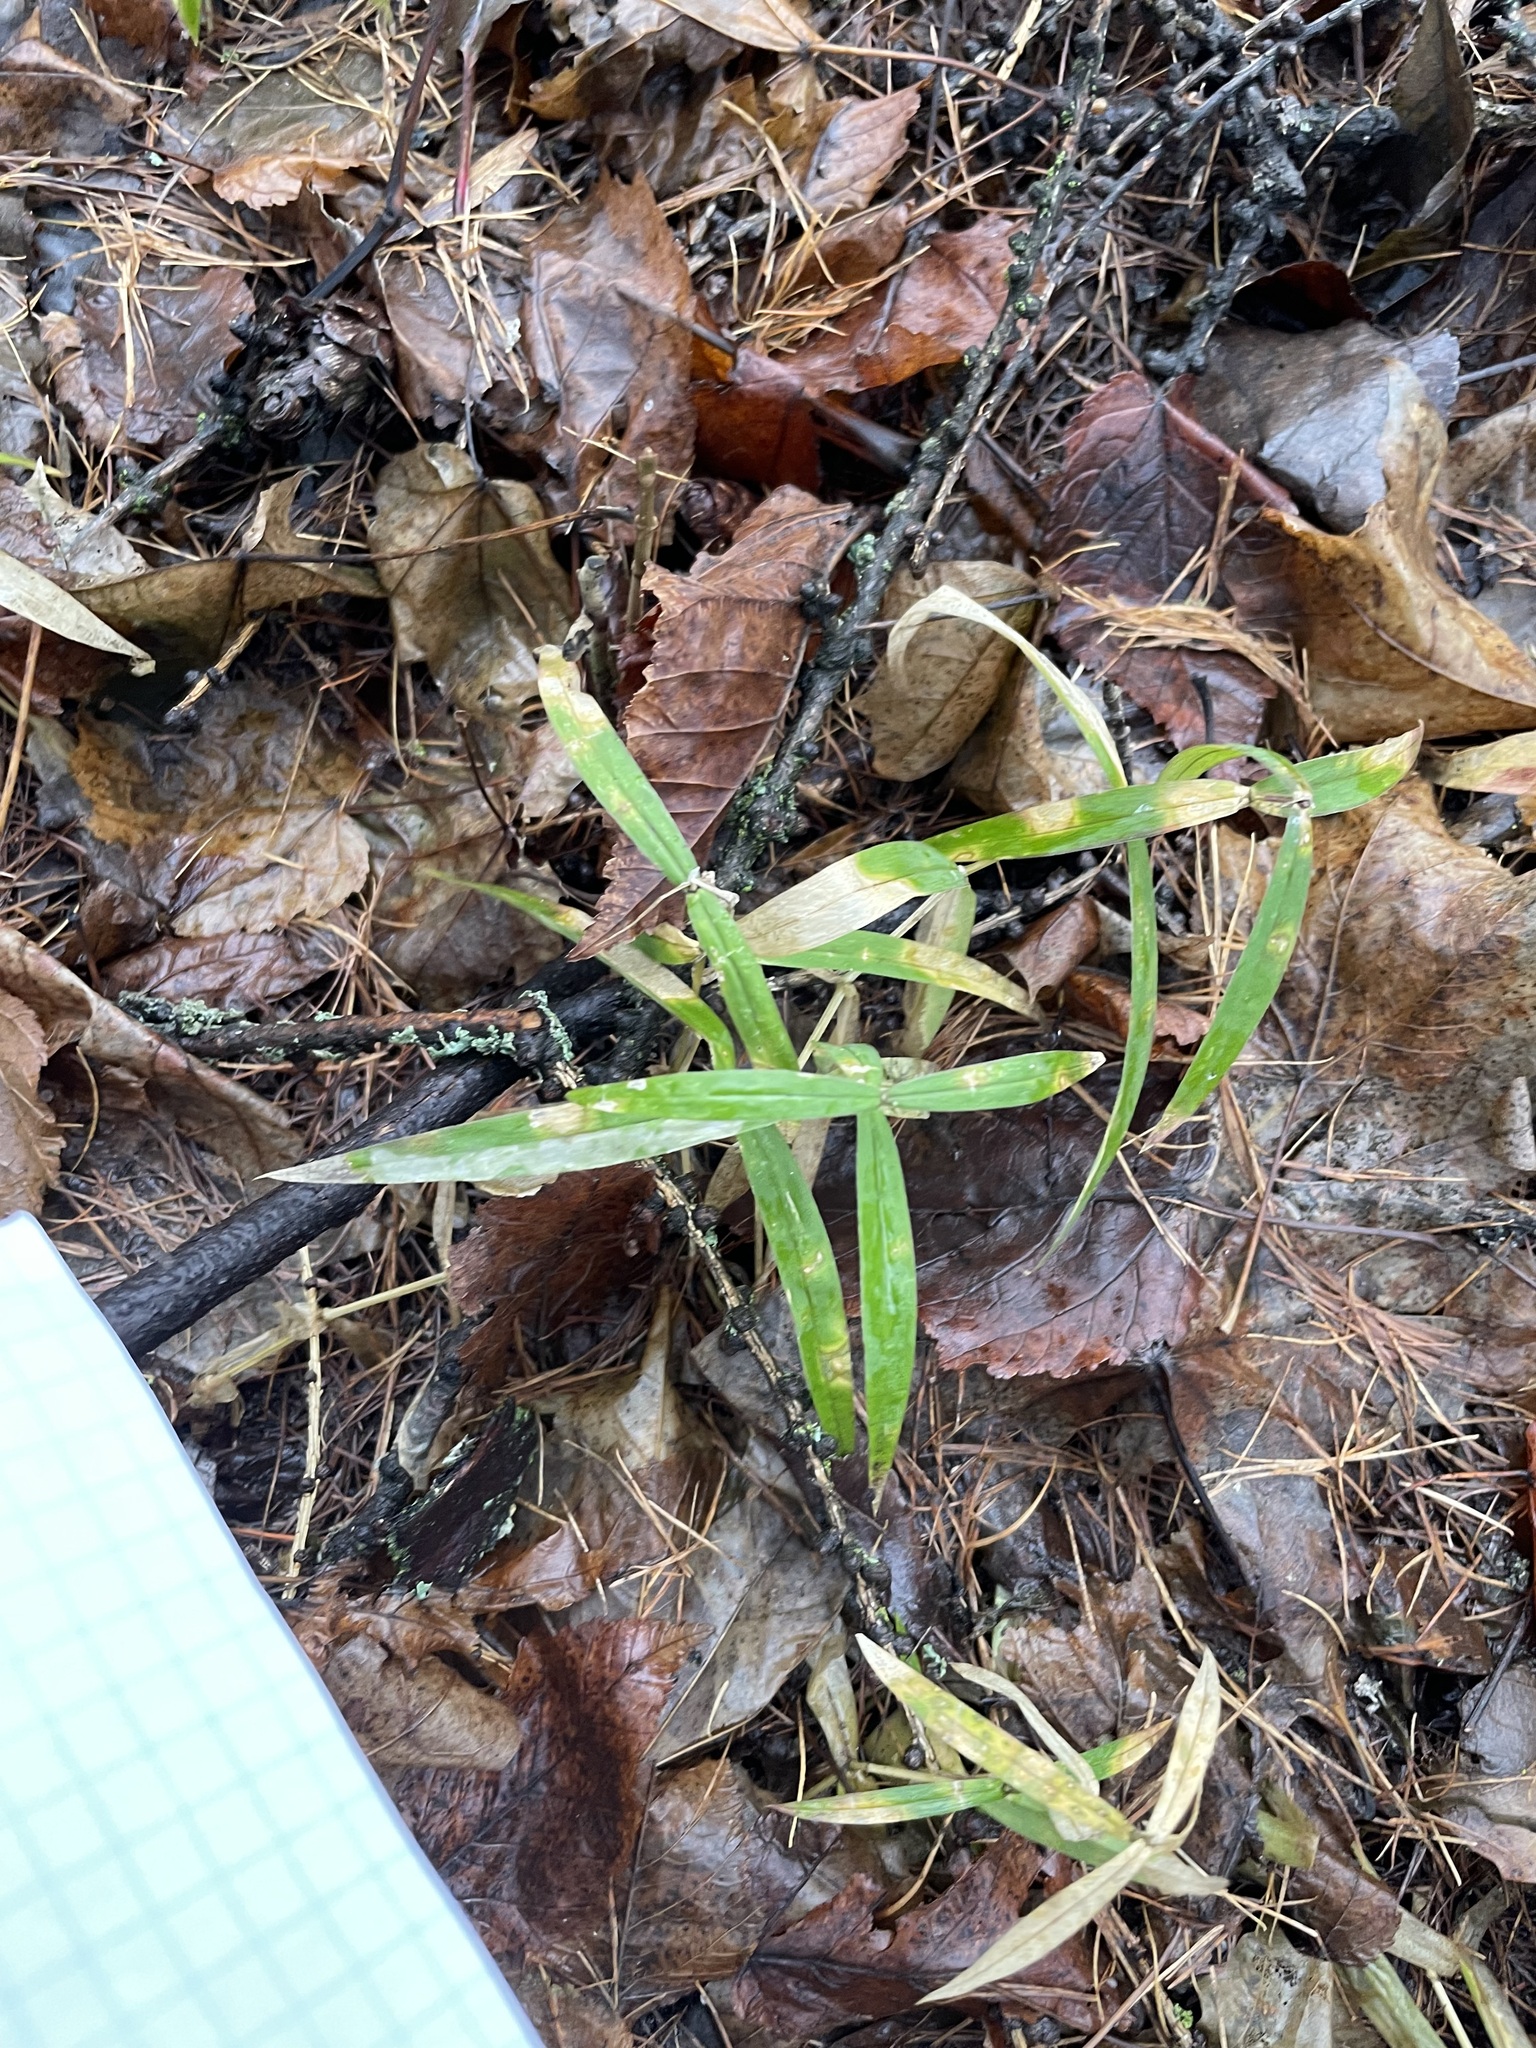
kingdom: Plantae
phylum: Tracheophyta
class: Magnoliopsida
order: Caryophyllales
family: Caryophyllaceae
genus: Rabelera
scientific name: Rabelera holostea
